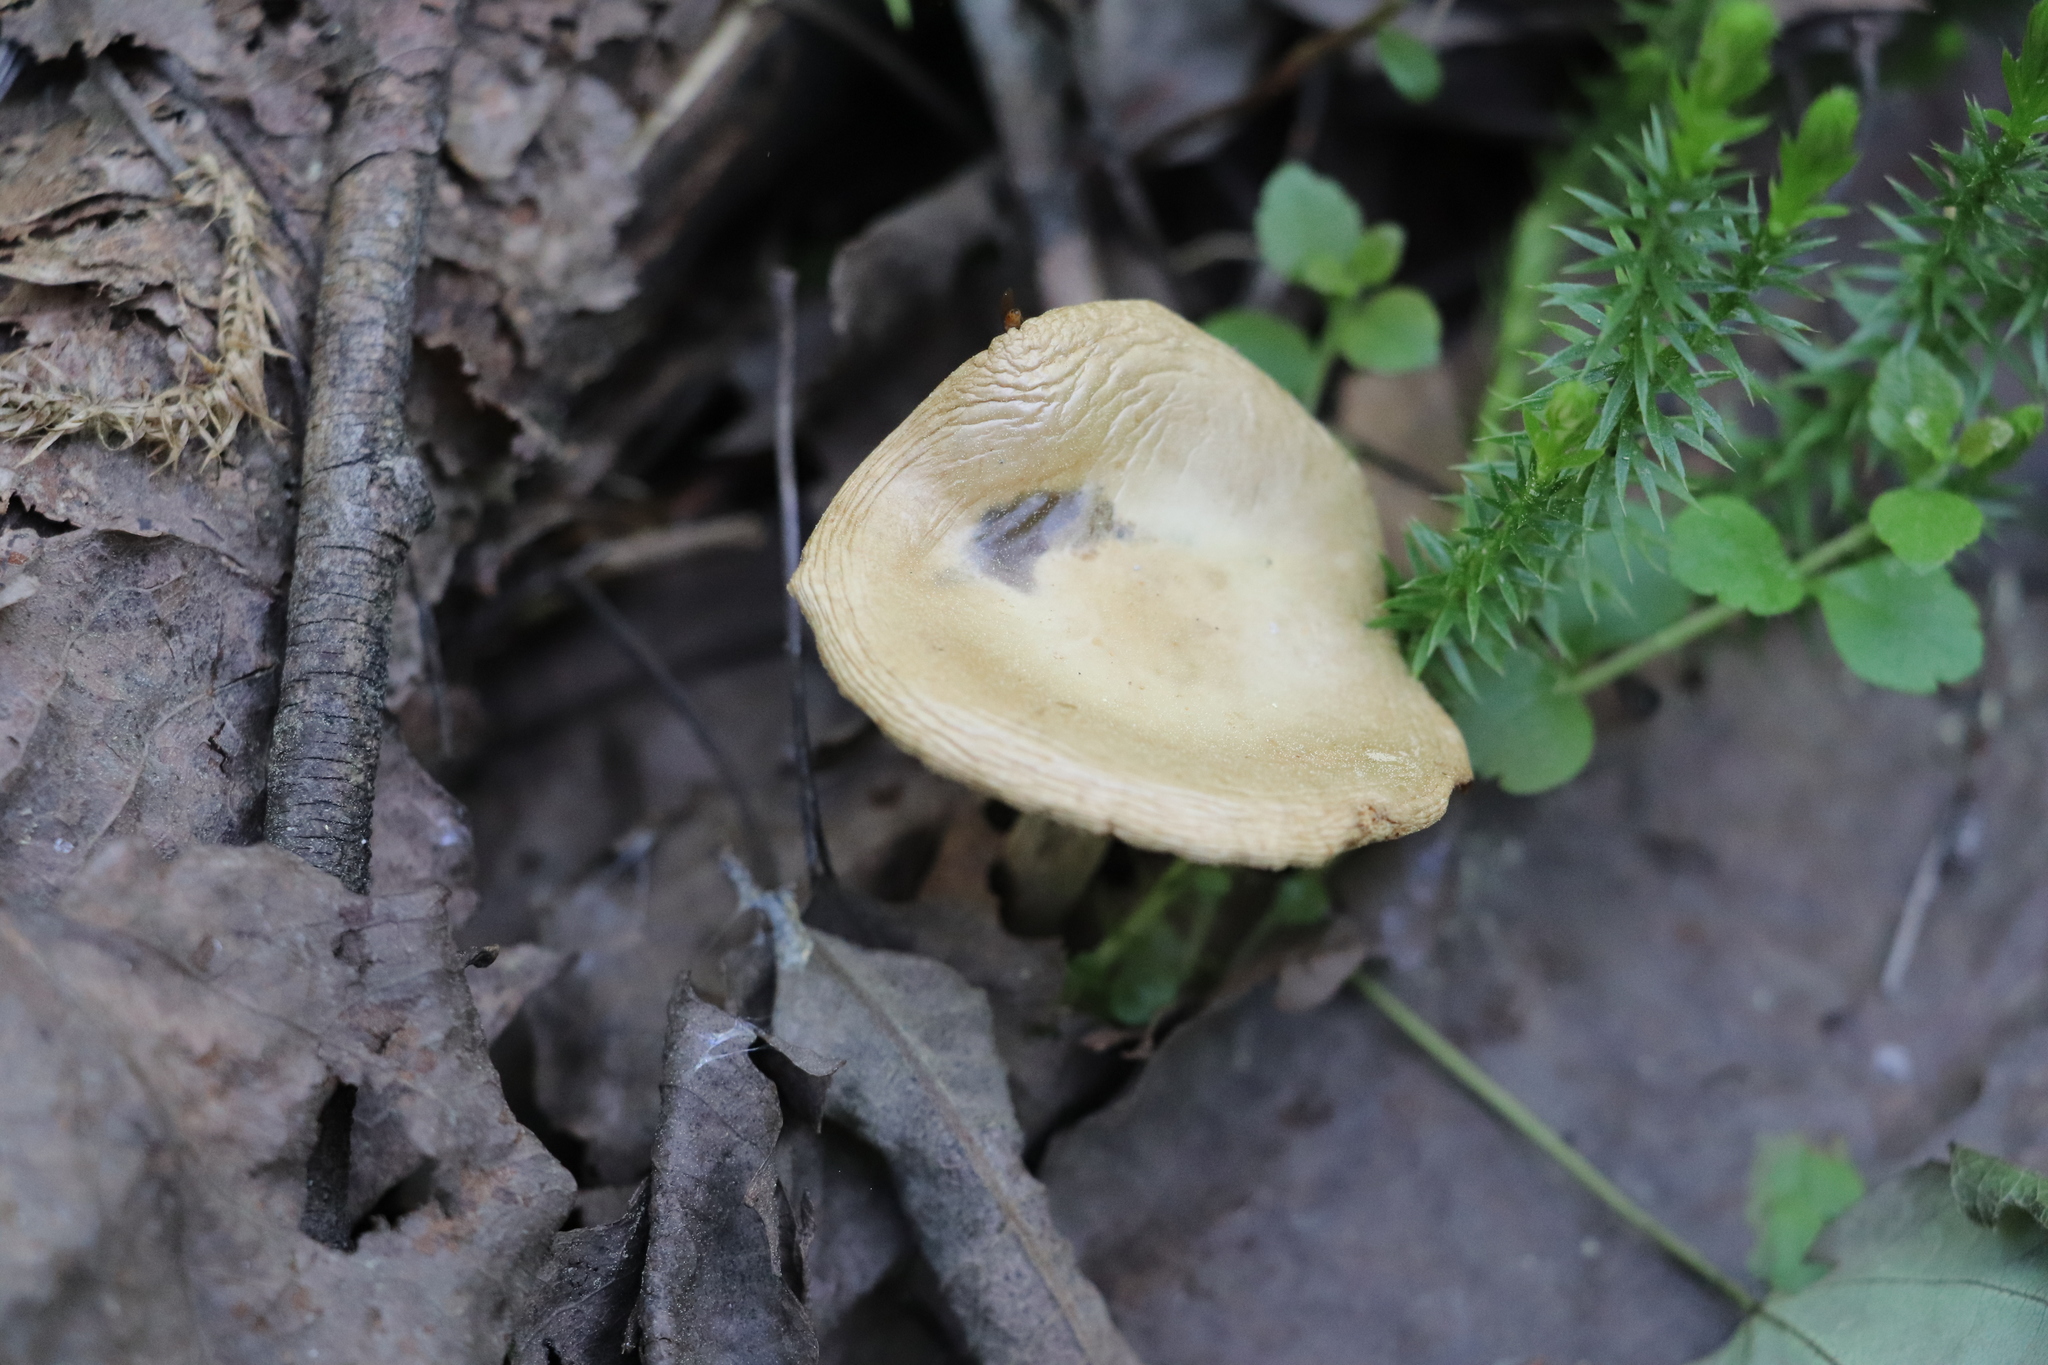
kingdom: Fungi
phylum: Basidiomycota
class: Agaricomycetes
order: Agaricales
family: Strophariaceae
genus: Agrocybe
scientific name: Agrocybe praecox
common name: Spring fieldcap
